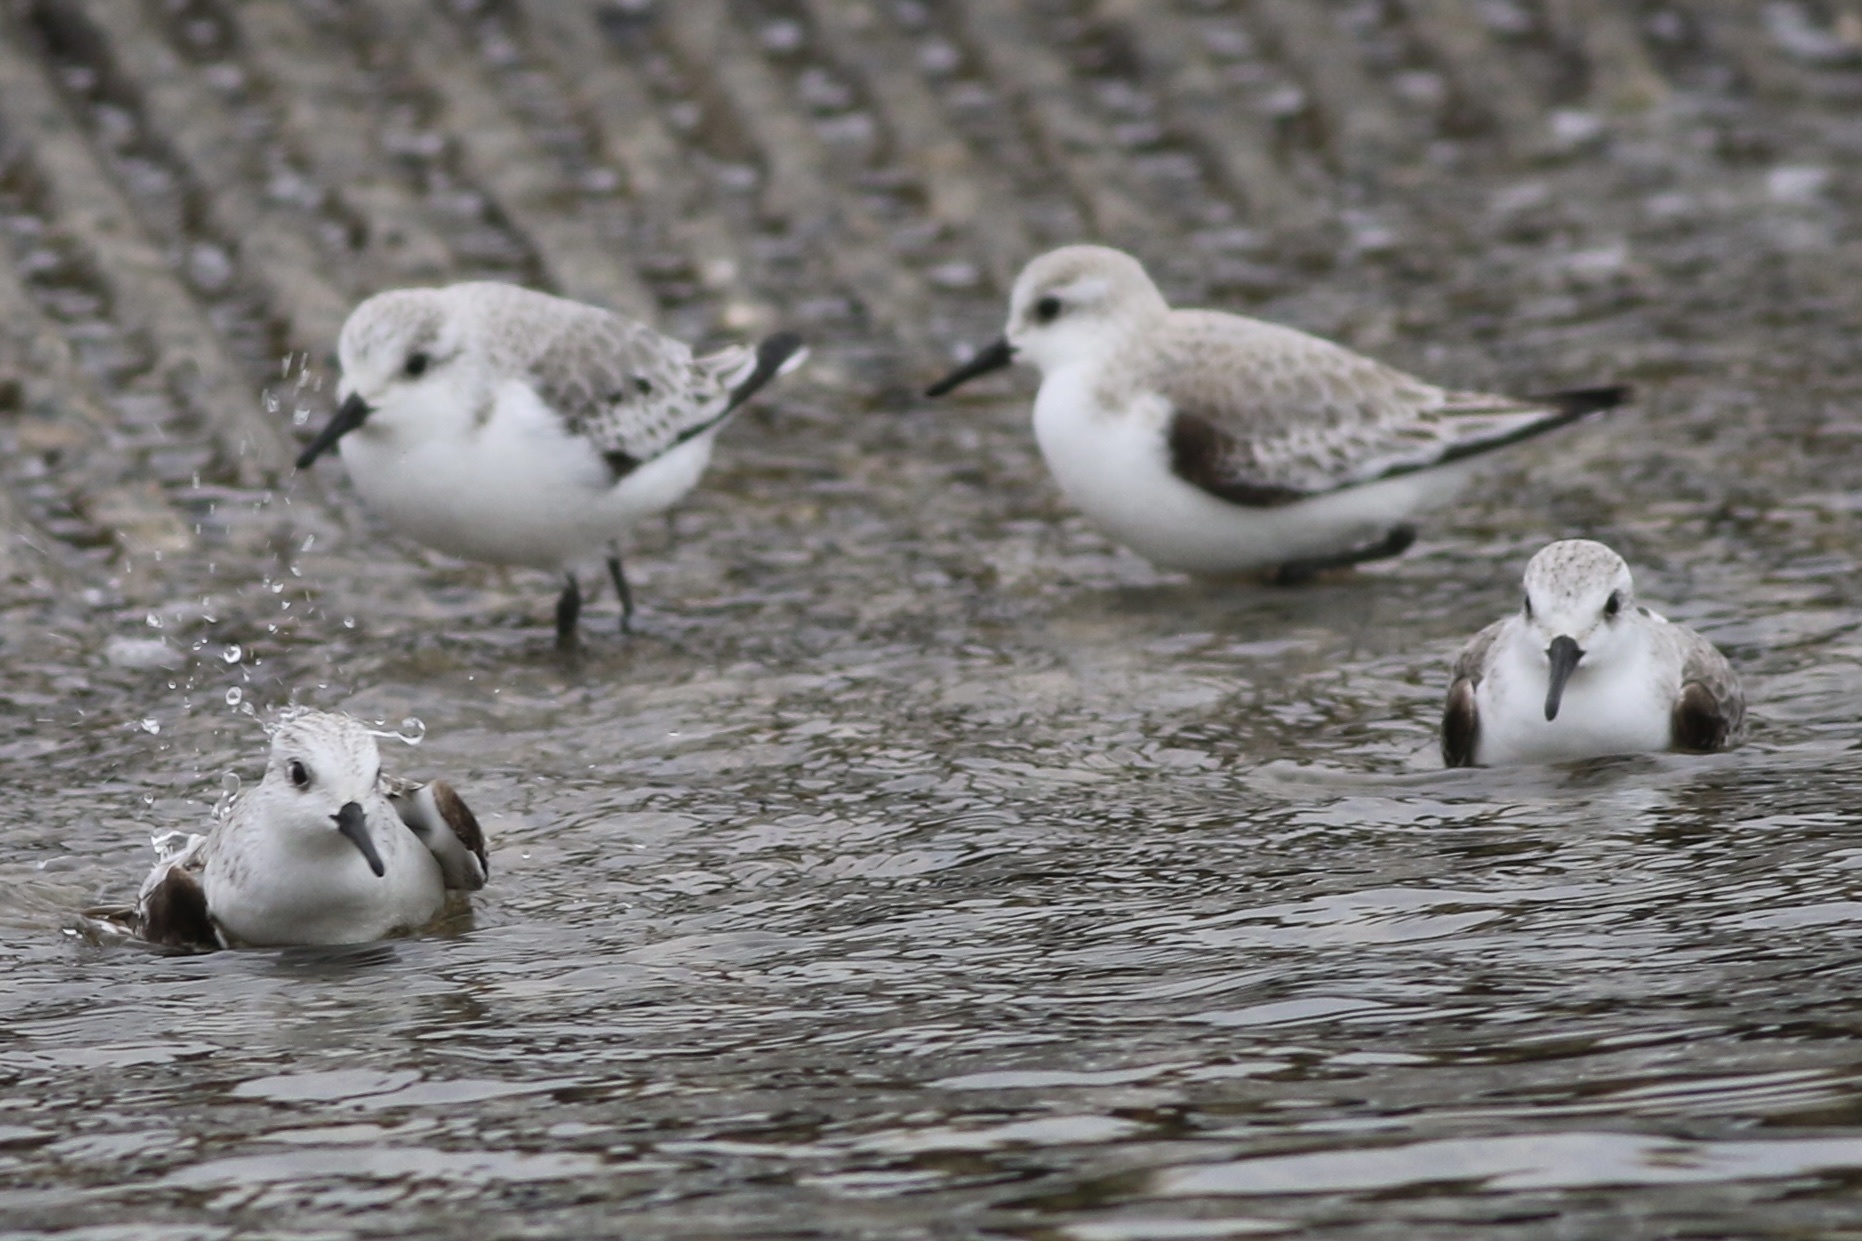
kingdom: Animalia
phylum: Chordata
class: Aves
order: Charadriiformes
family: Scolopacidae
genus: Calidris
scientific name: Calidris alba
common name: Sanderling
